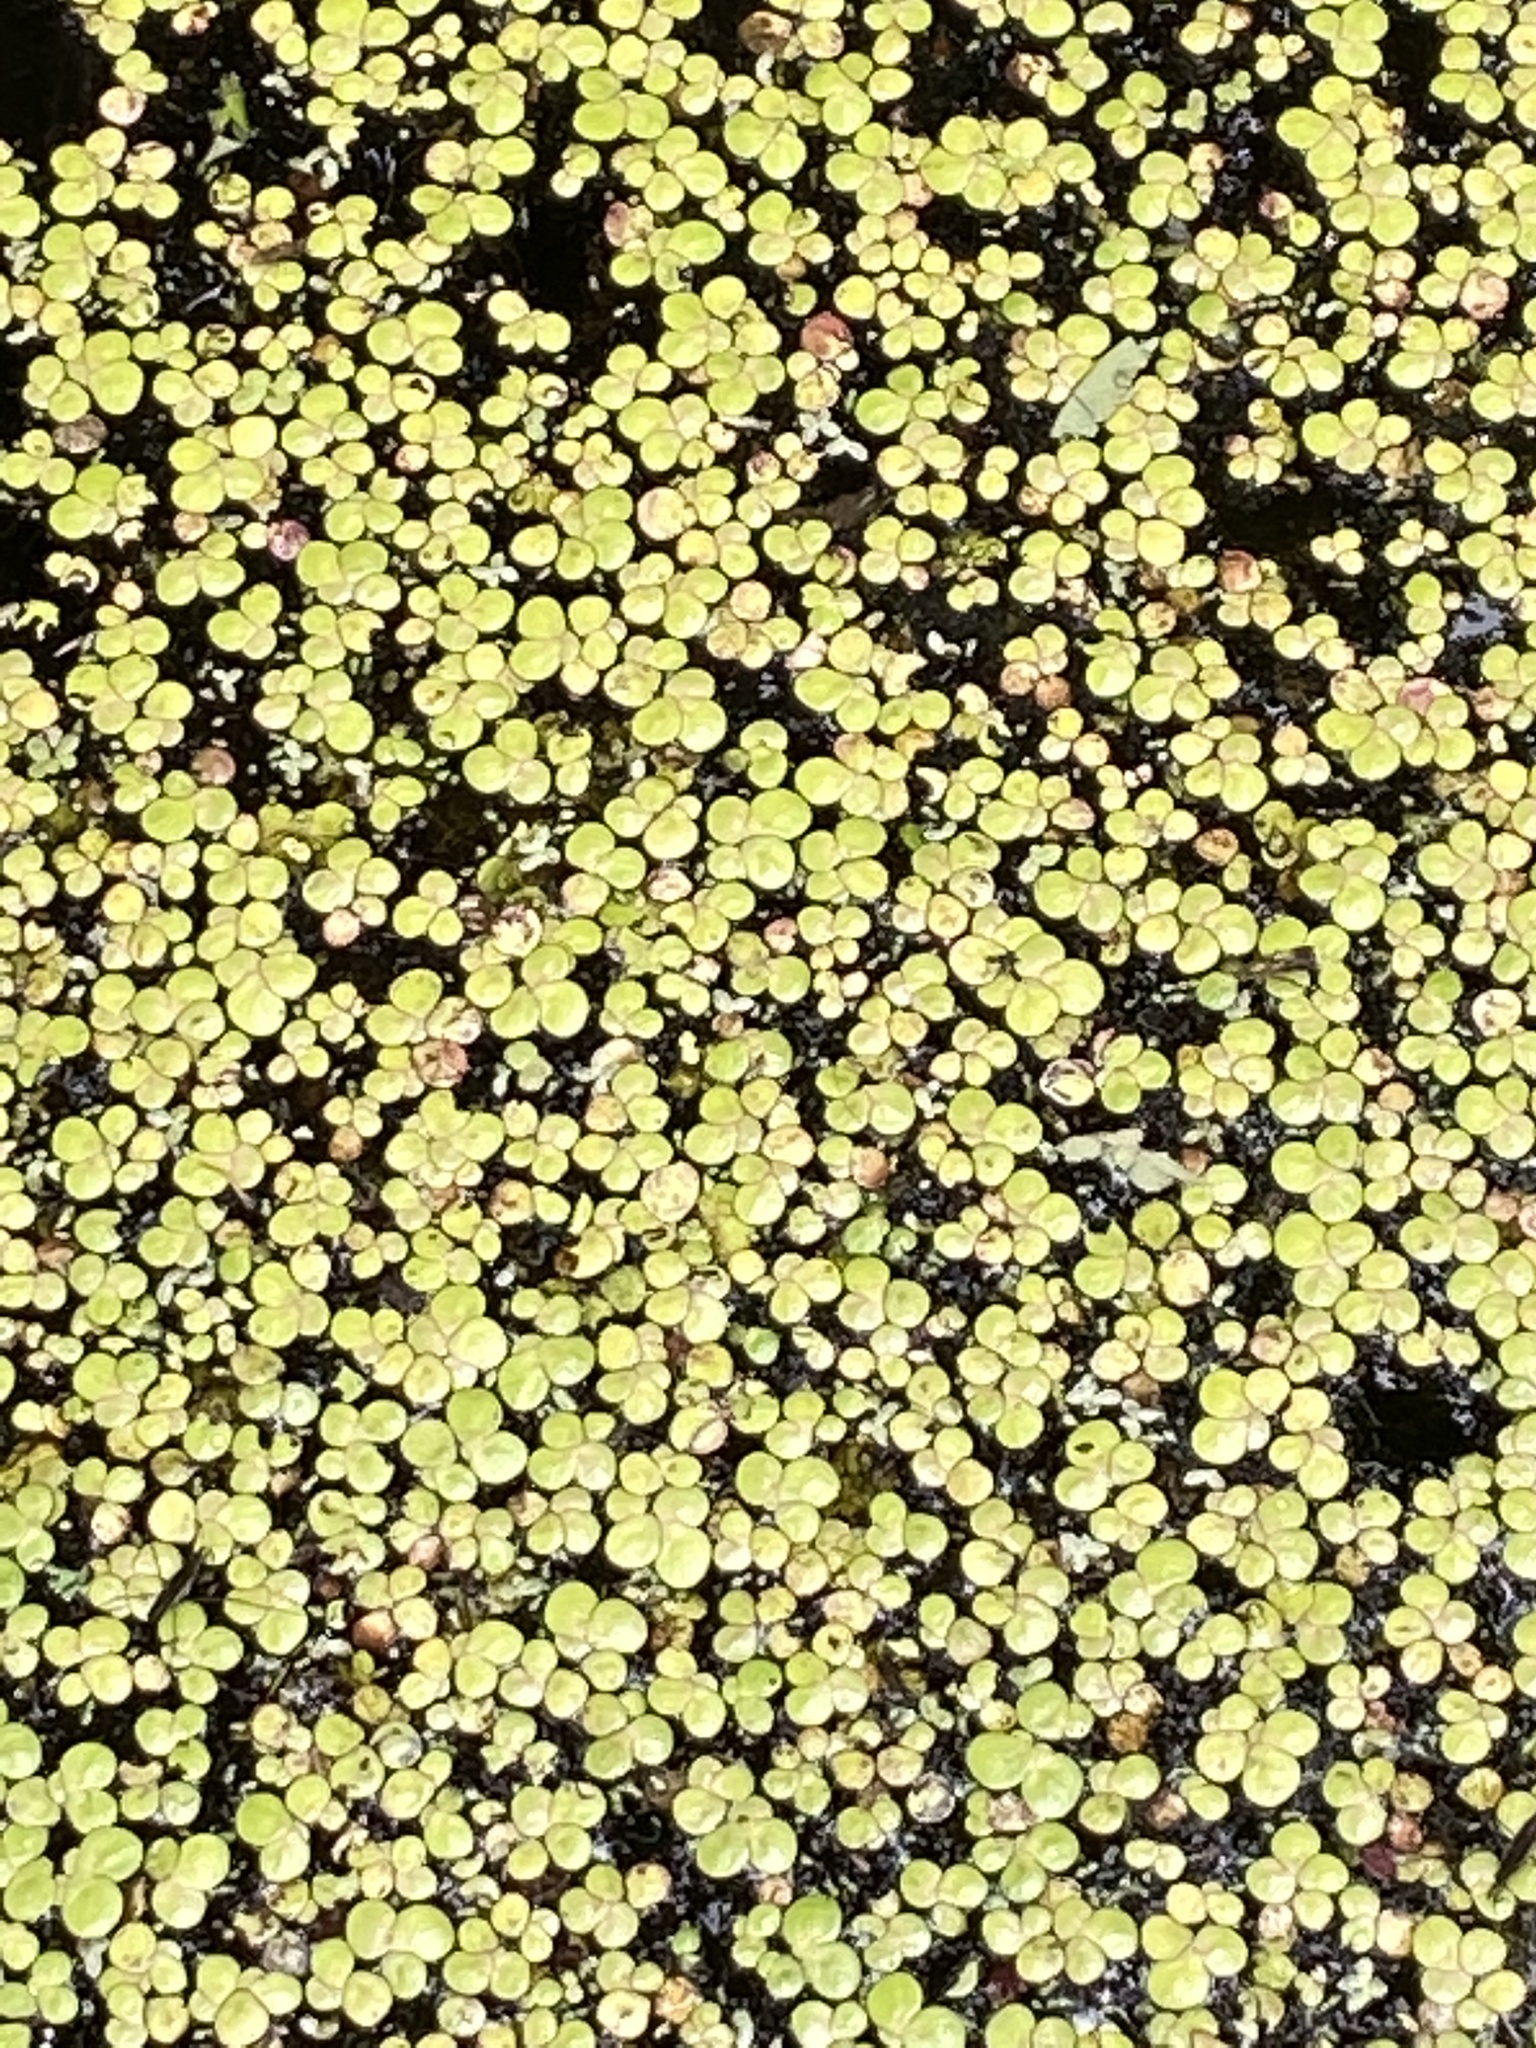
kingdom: Plantae
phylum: Tracheophyta
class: Liliopsida
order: Alismatales
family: Araceae
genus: Spirodela
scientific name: Spirodela polyrhiza
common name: Great duckweed
